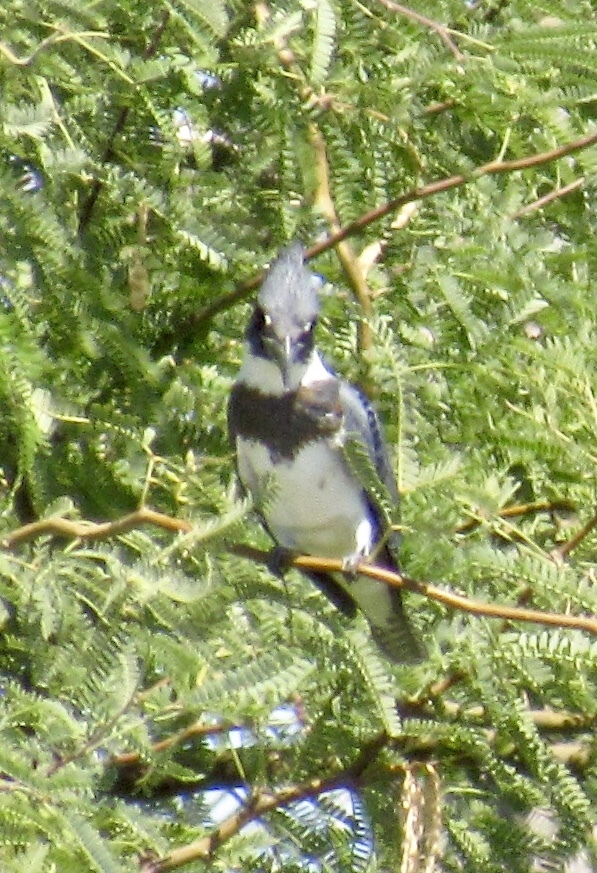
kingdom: Animalia
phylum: Chordata
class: Aves
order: Coraciiformes
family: Alcedinidae
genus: Megaceryle
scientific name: Megaceryle alcyon
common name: Belted kingfisher
